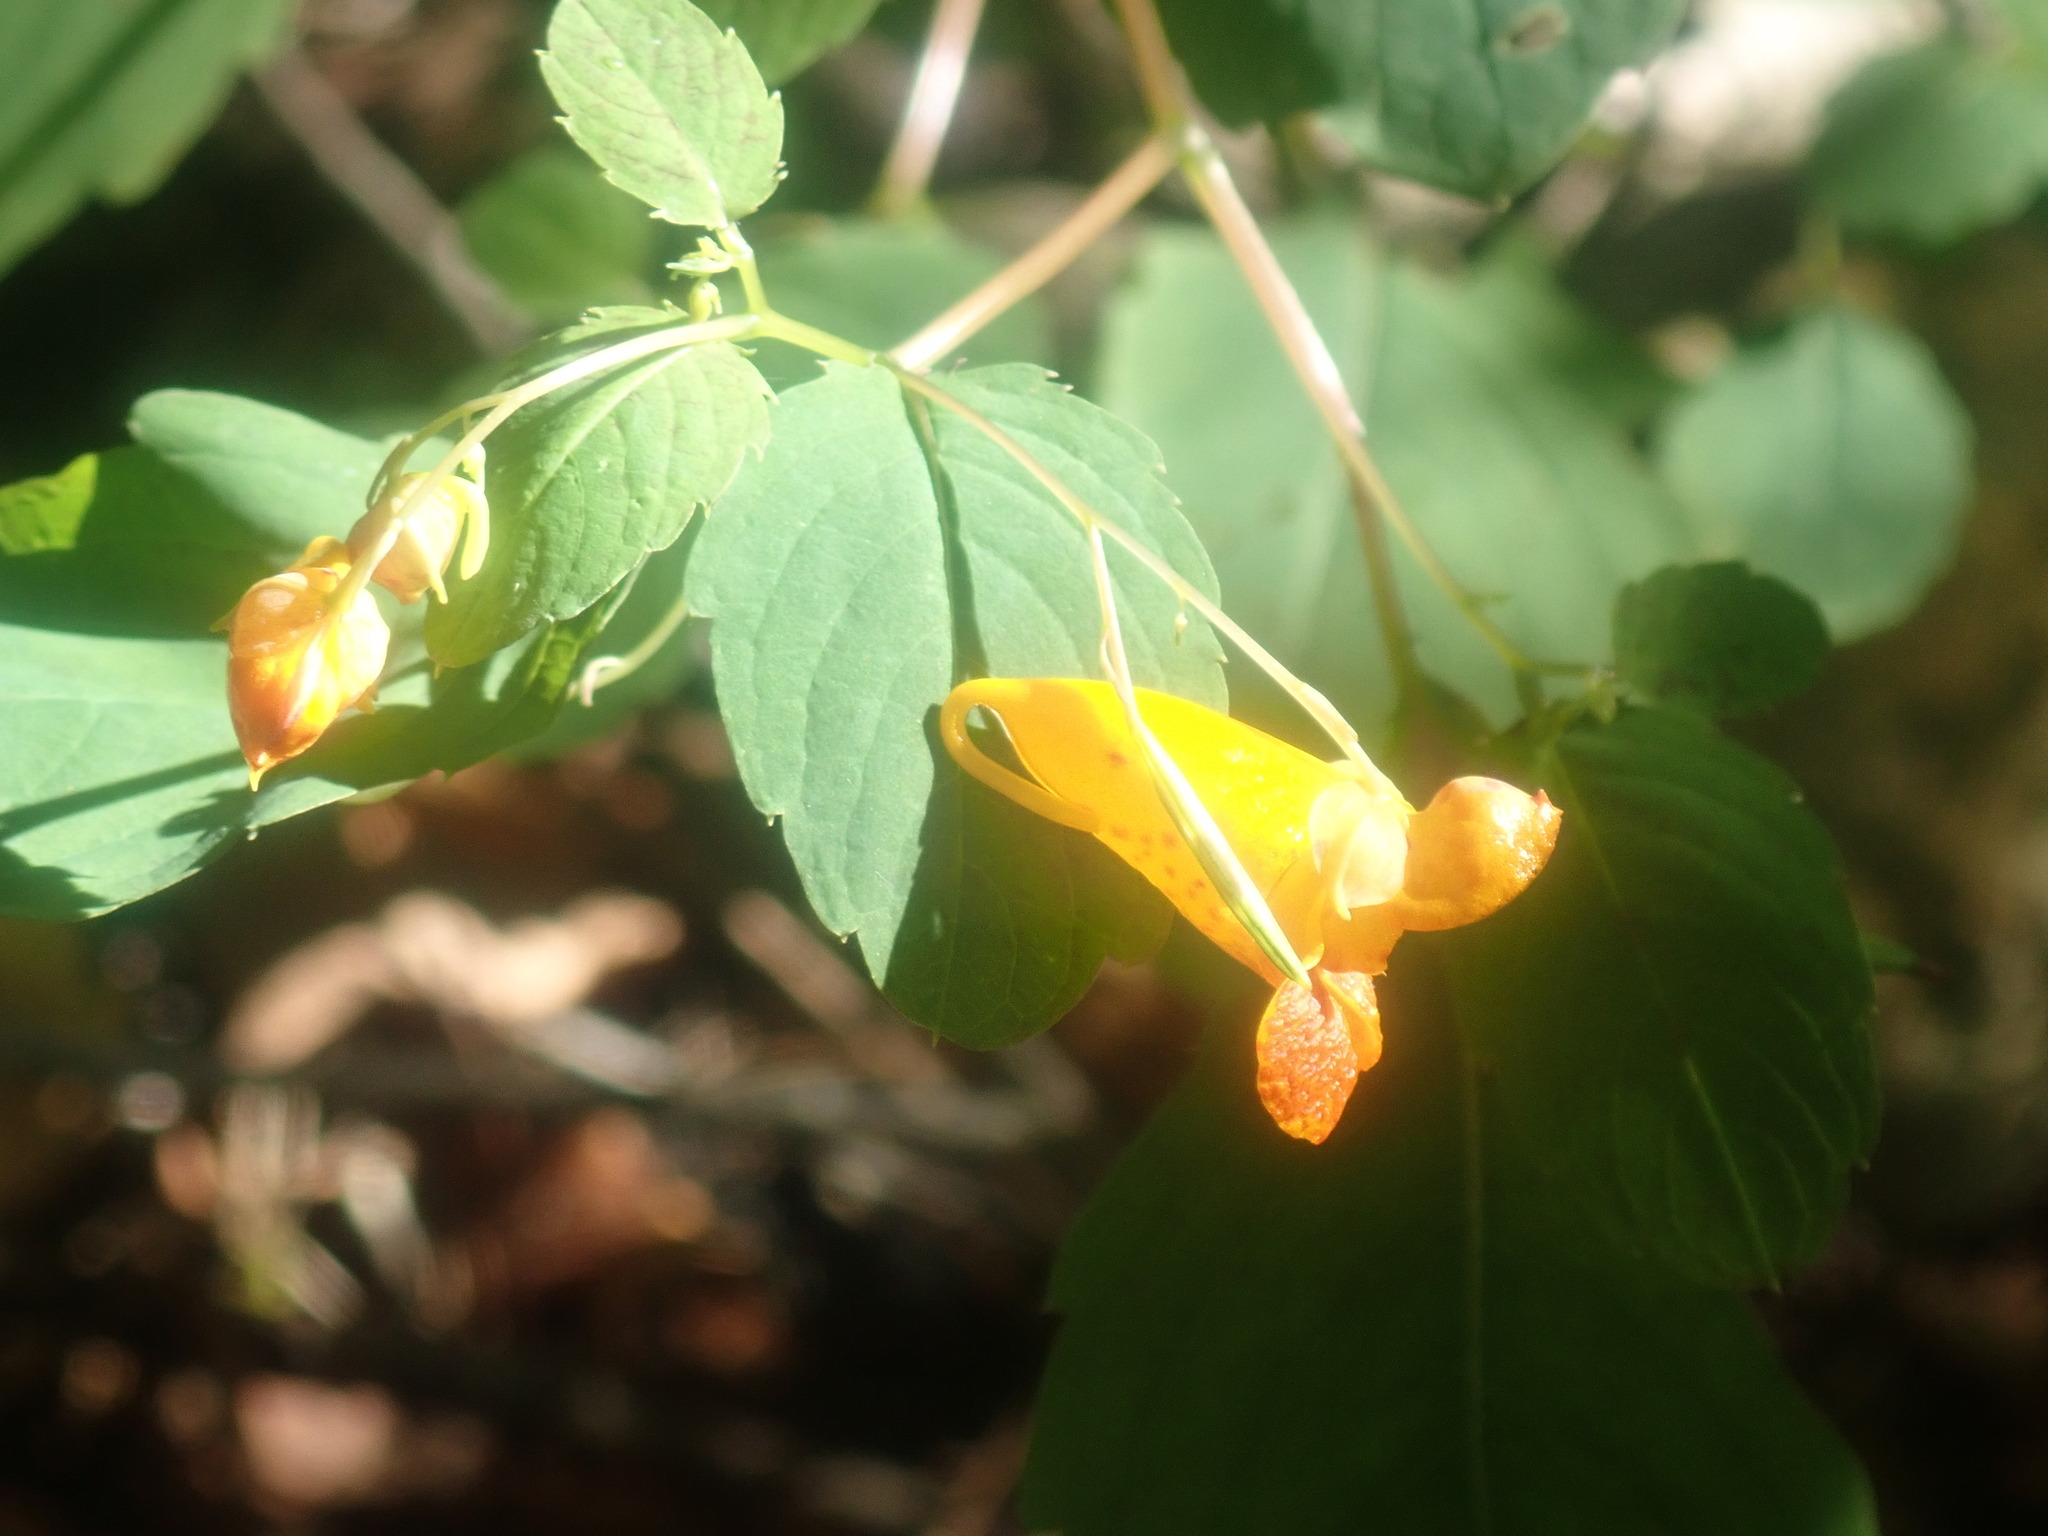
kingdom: Plantae
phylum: Tracheophyta
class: Magnoliopsida
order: Ericales
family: Balsaminaceae
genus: Impatiens
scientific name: Impatiens capensis
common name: Orange balsam
